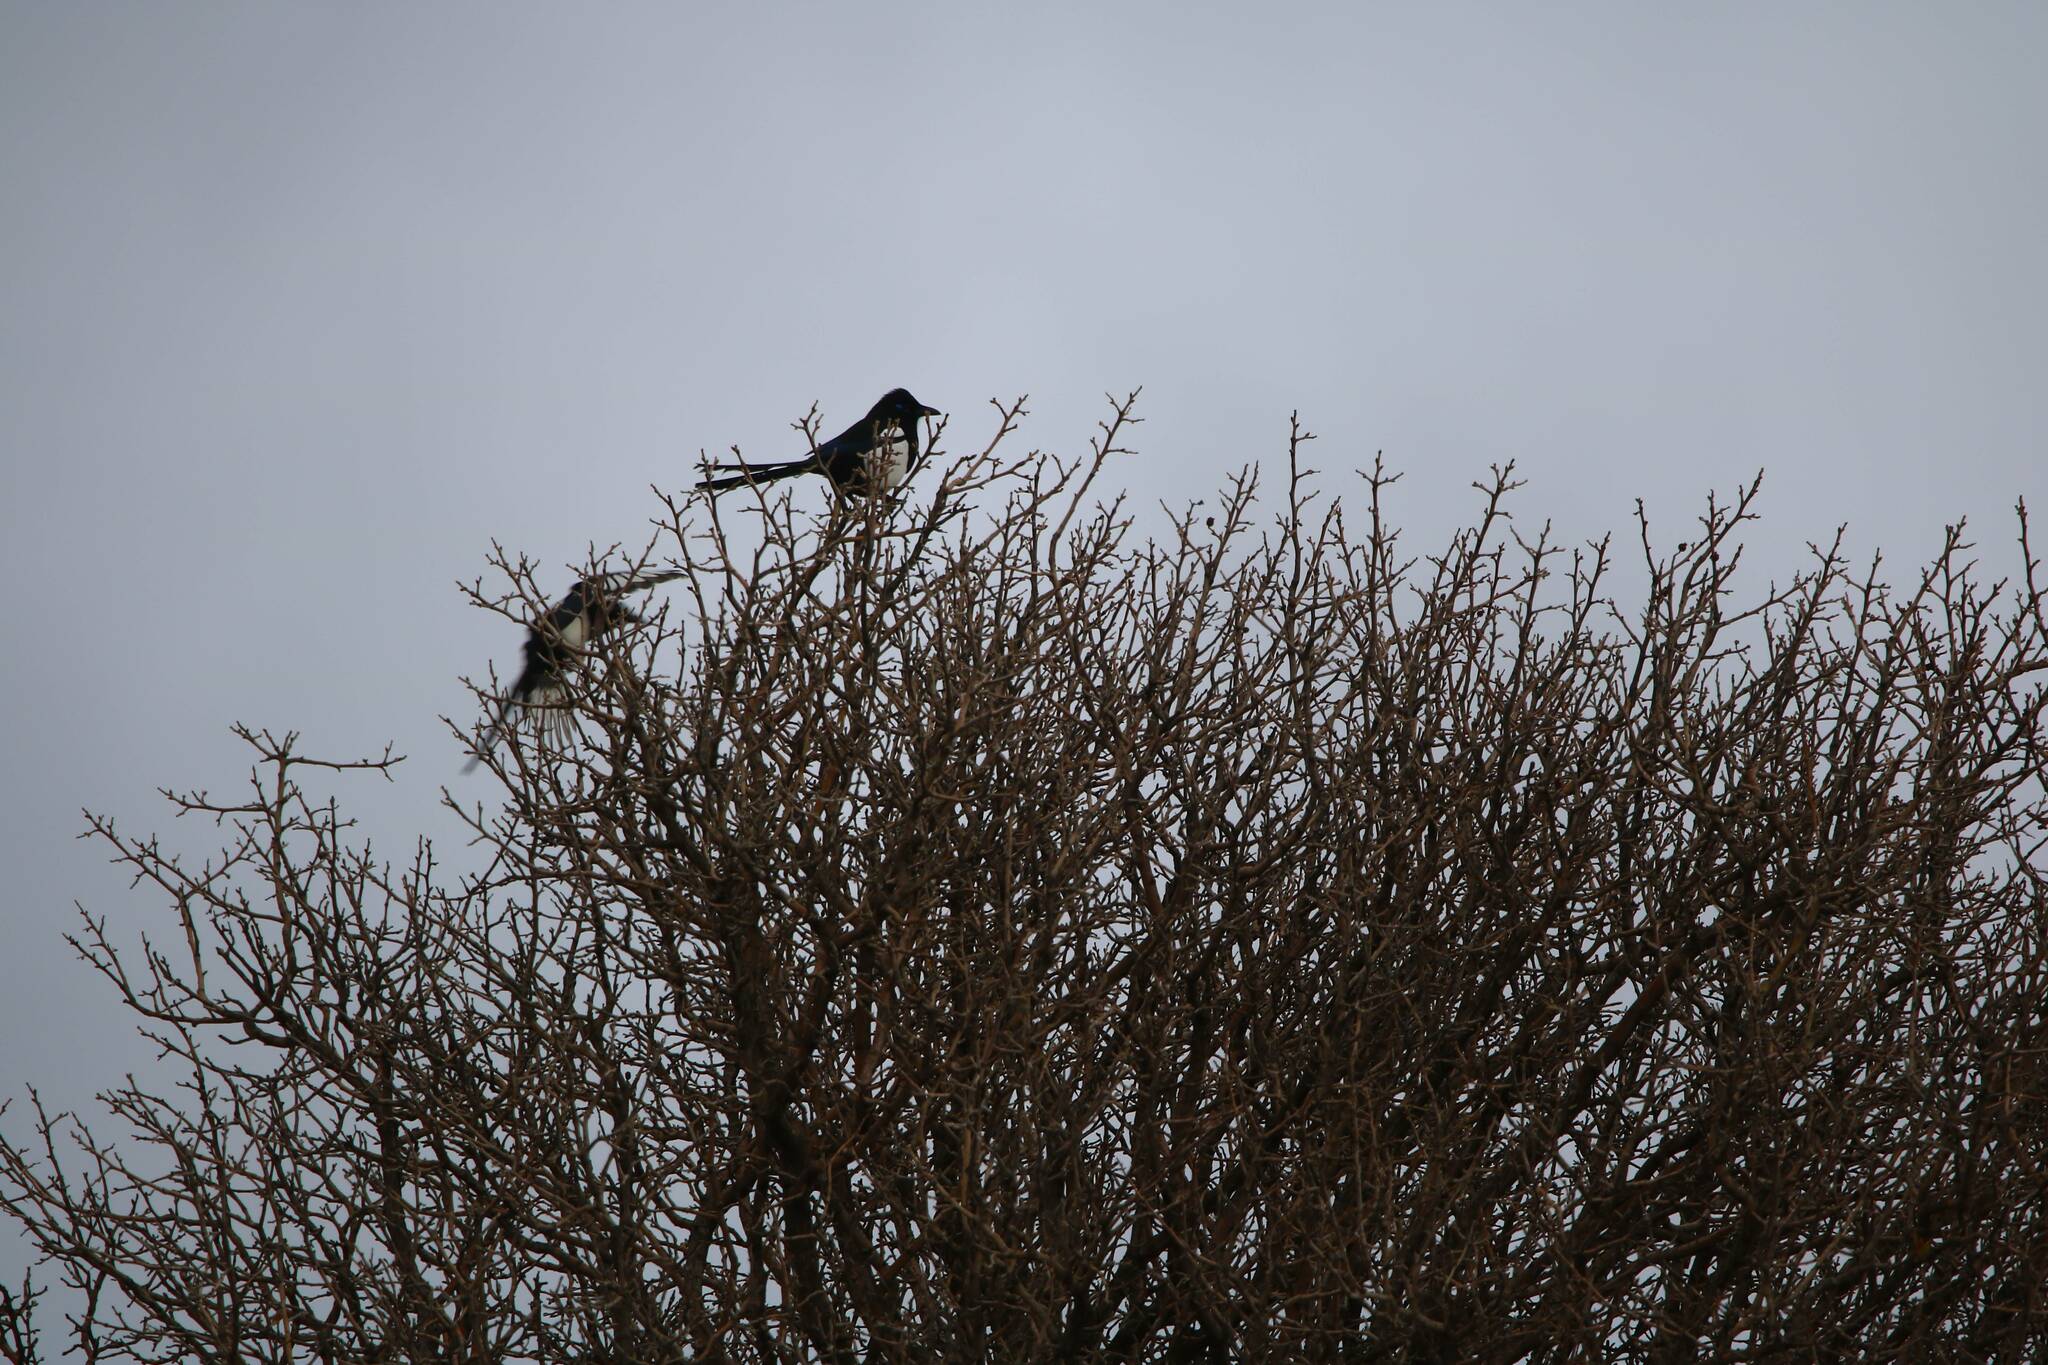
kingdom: Animalia
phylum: Chordata
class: Aves
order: Passeriformes
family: Corvidae
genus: Pica
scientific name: Pica mauritanica
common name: Maghreb magpie
